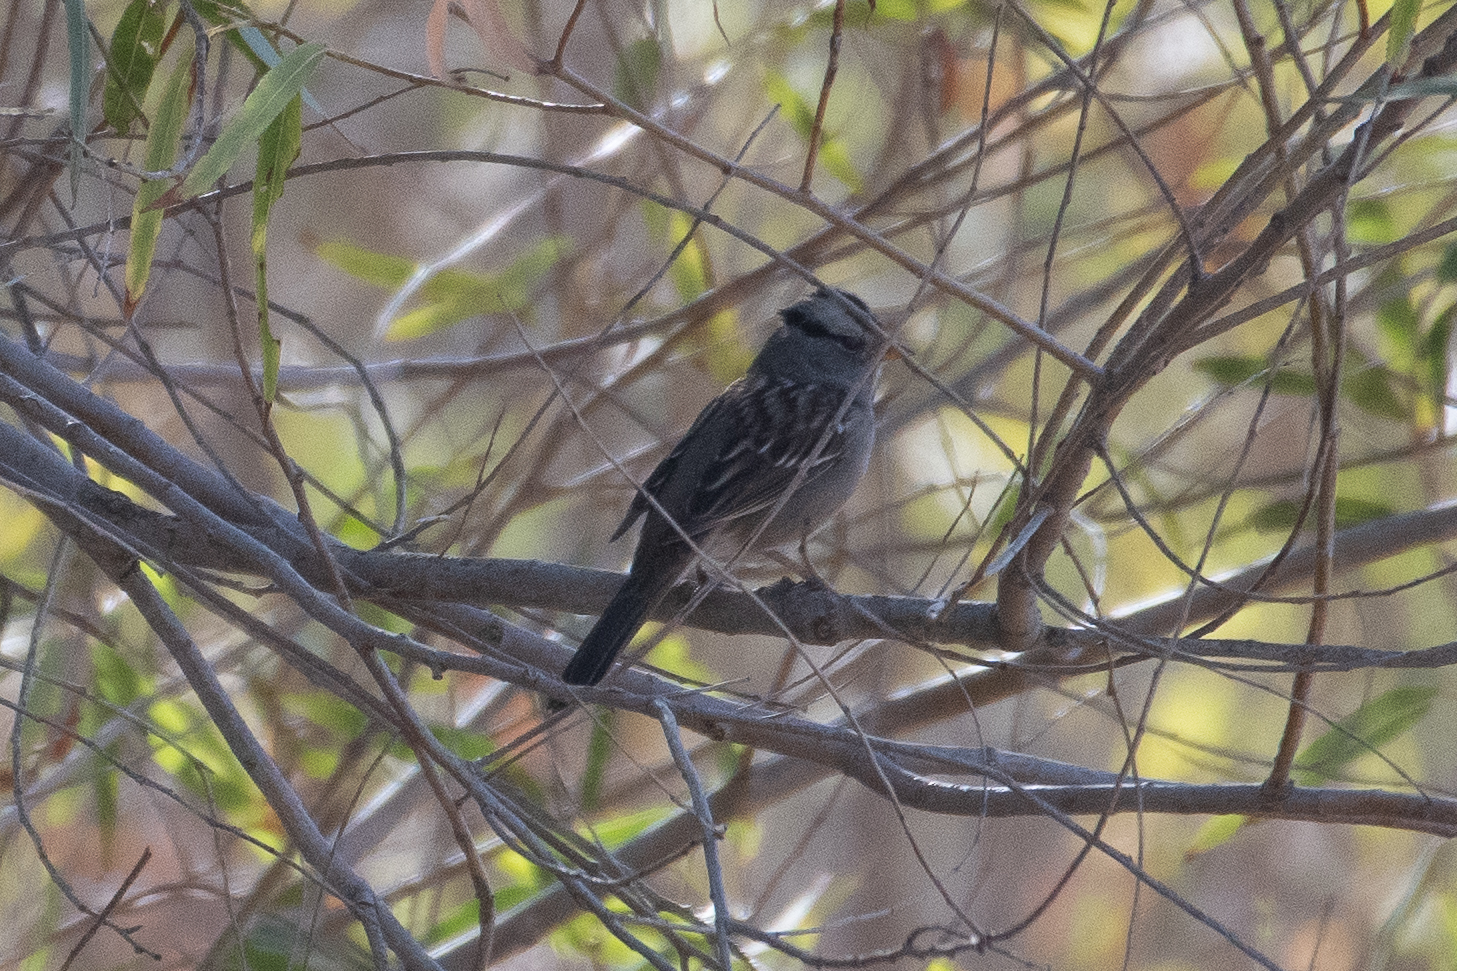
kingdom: Animalia
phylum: Chordata
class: Aves
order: Passeriformes
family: Passerellidae
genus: Zonotrichia
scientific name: Zonotrichia leucophrys
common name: White-crowned sparrow
